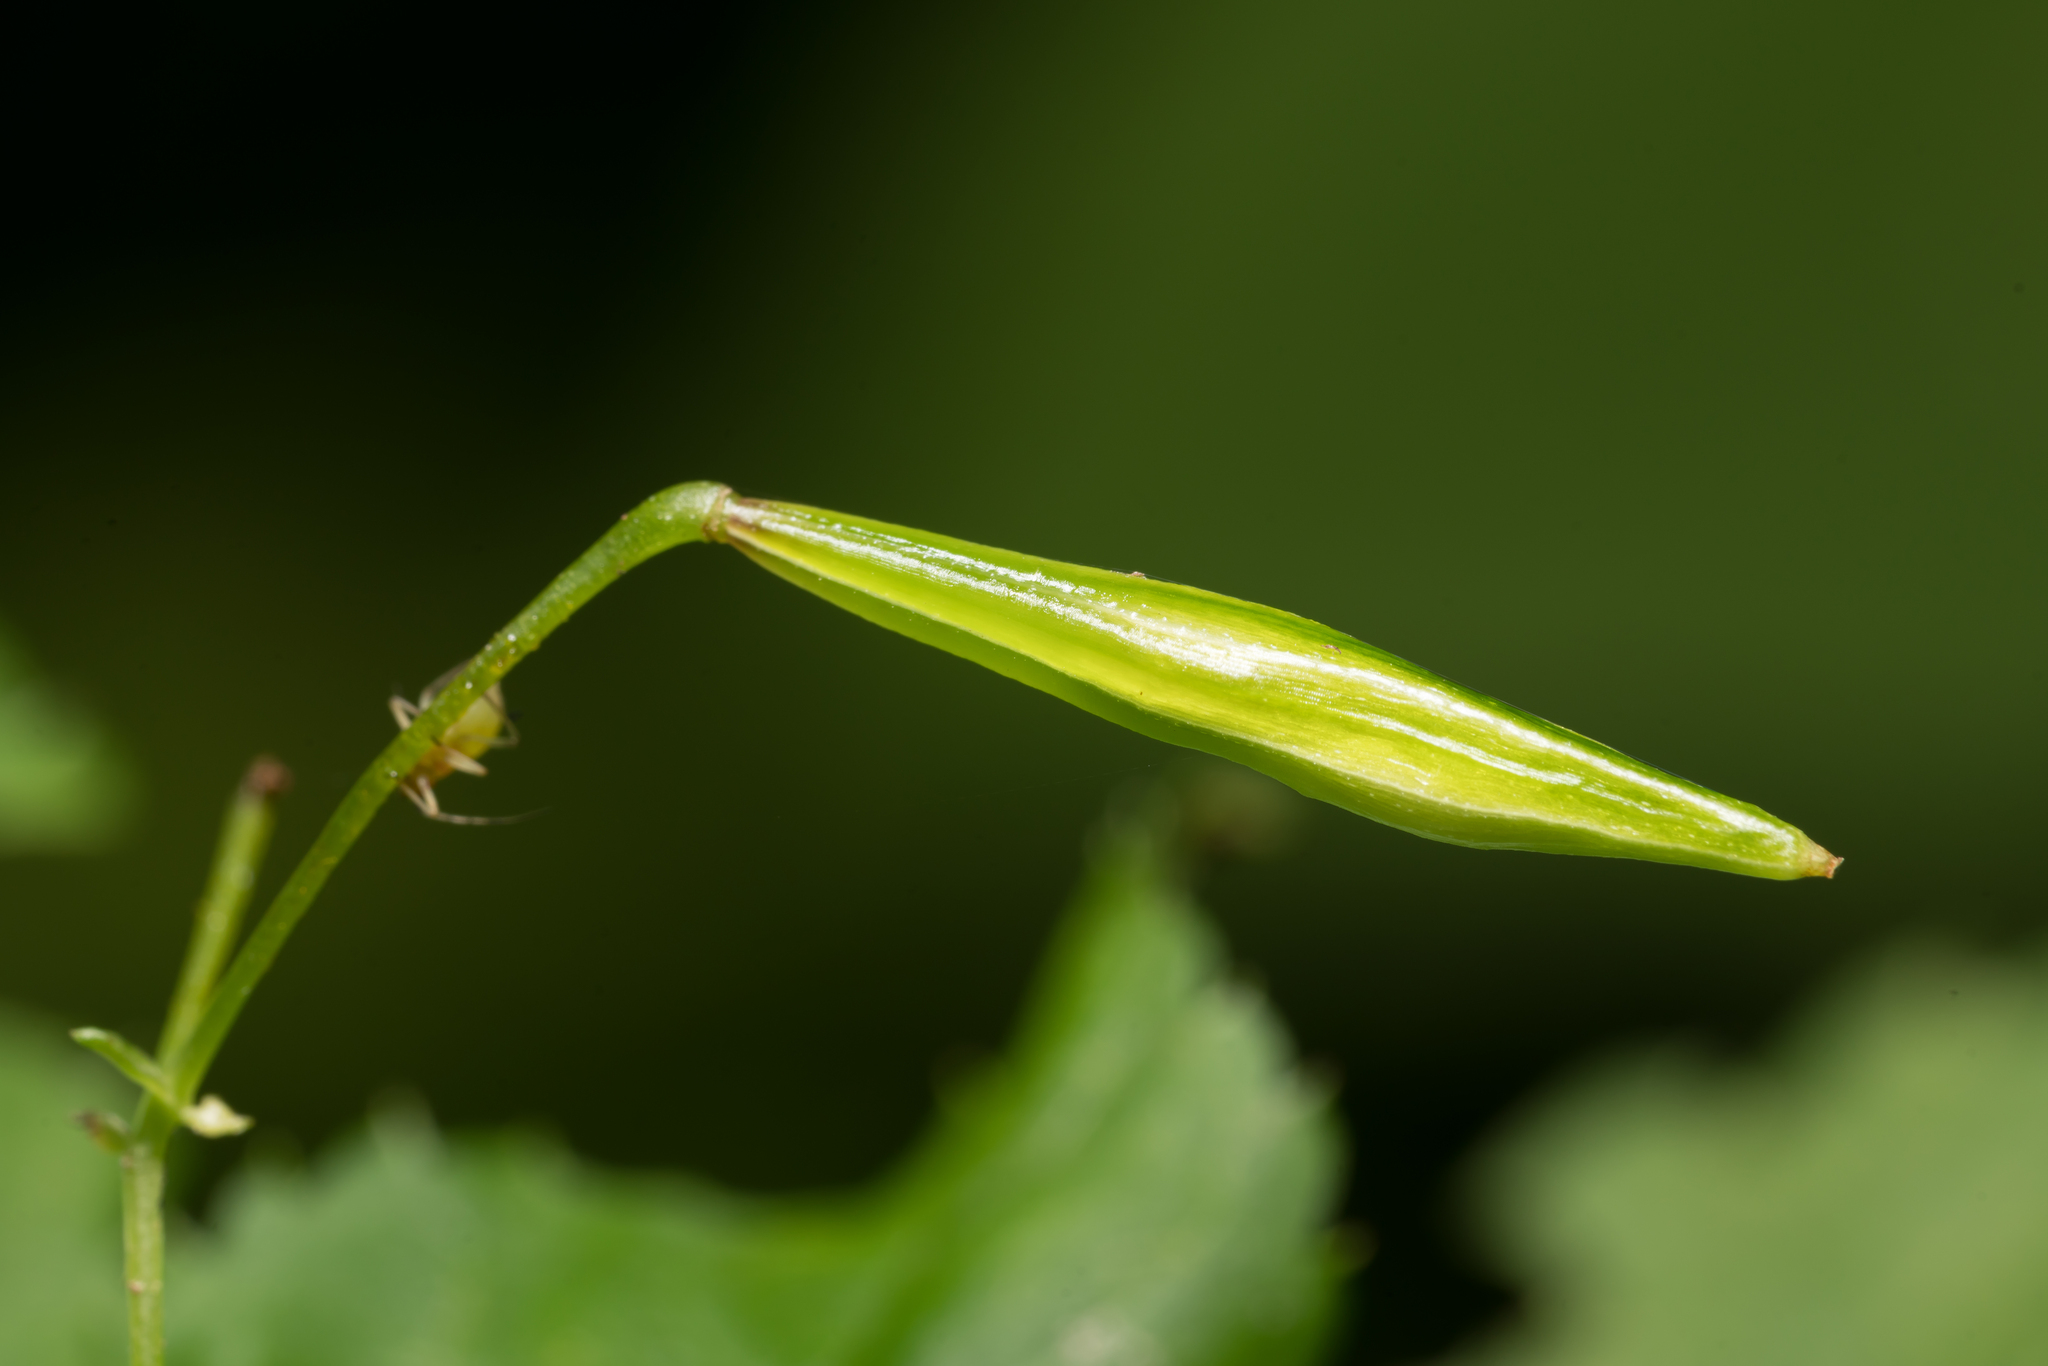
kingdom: Plantae
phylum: Tracheophyta
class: Magnoliopsida
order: Ericales
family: Balsaminaceae
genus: Impatiens
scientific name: Impatiens parviflora
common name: Small balsam
